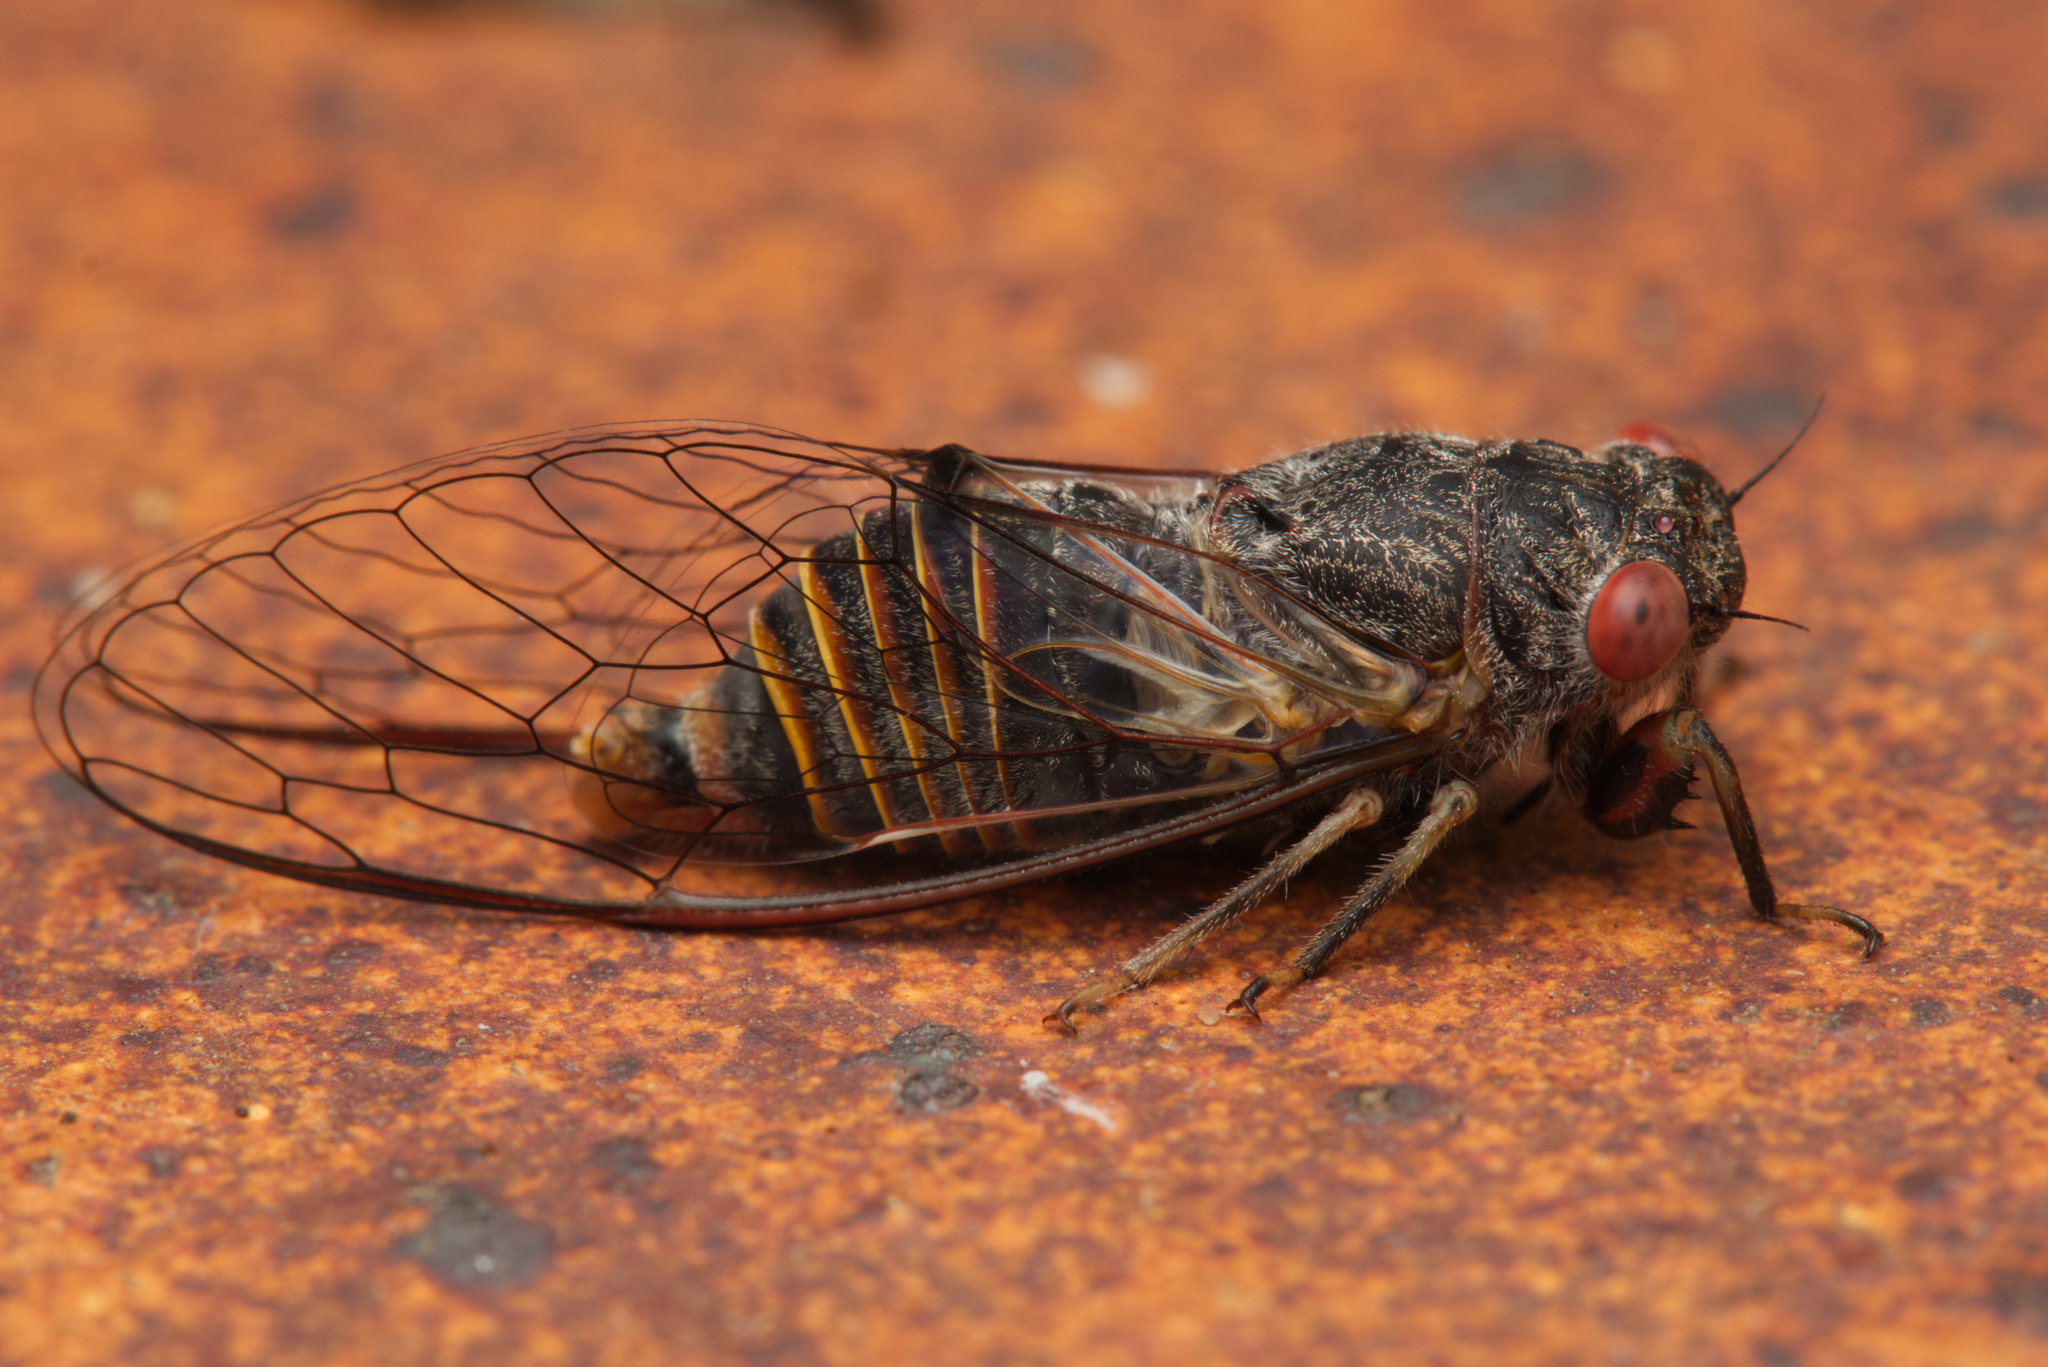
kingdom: Animalia
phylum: Arthropoda
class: Insecta
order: Hemiptera
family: Cicadidae
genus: Popplepsalta
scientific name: Popplepsalta annulata
